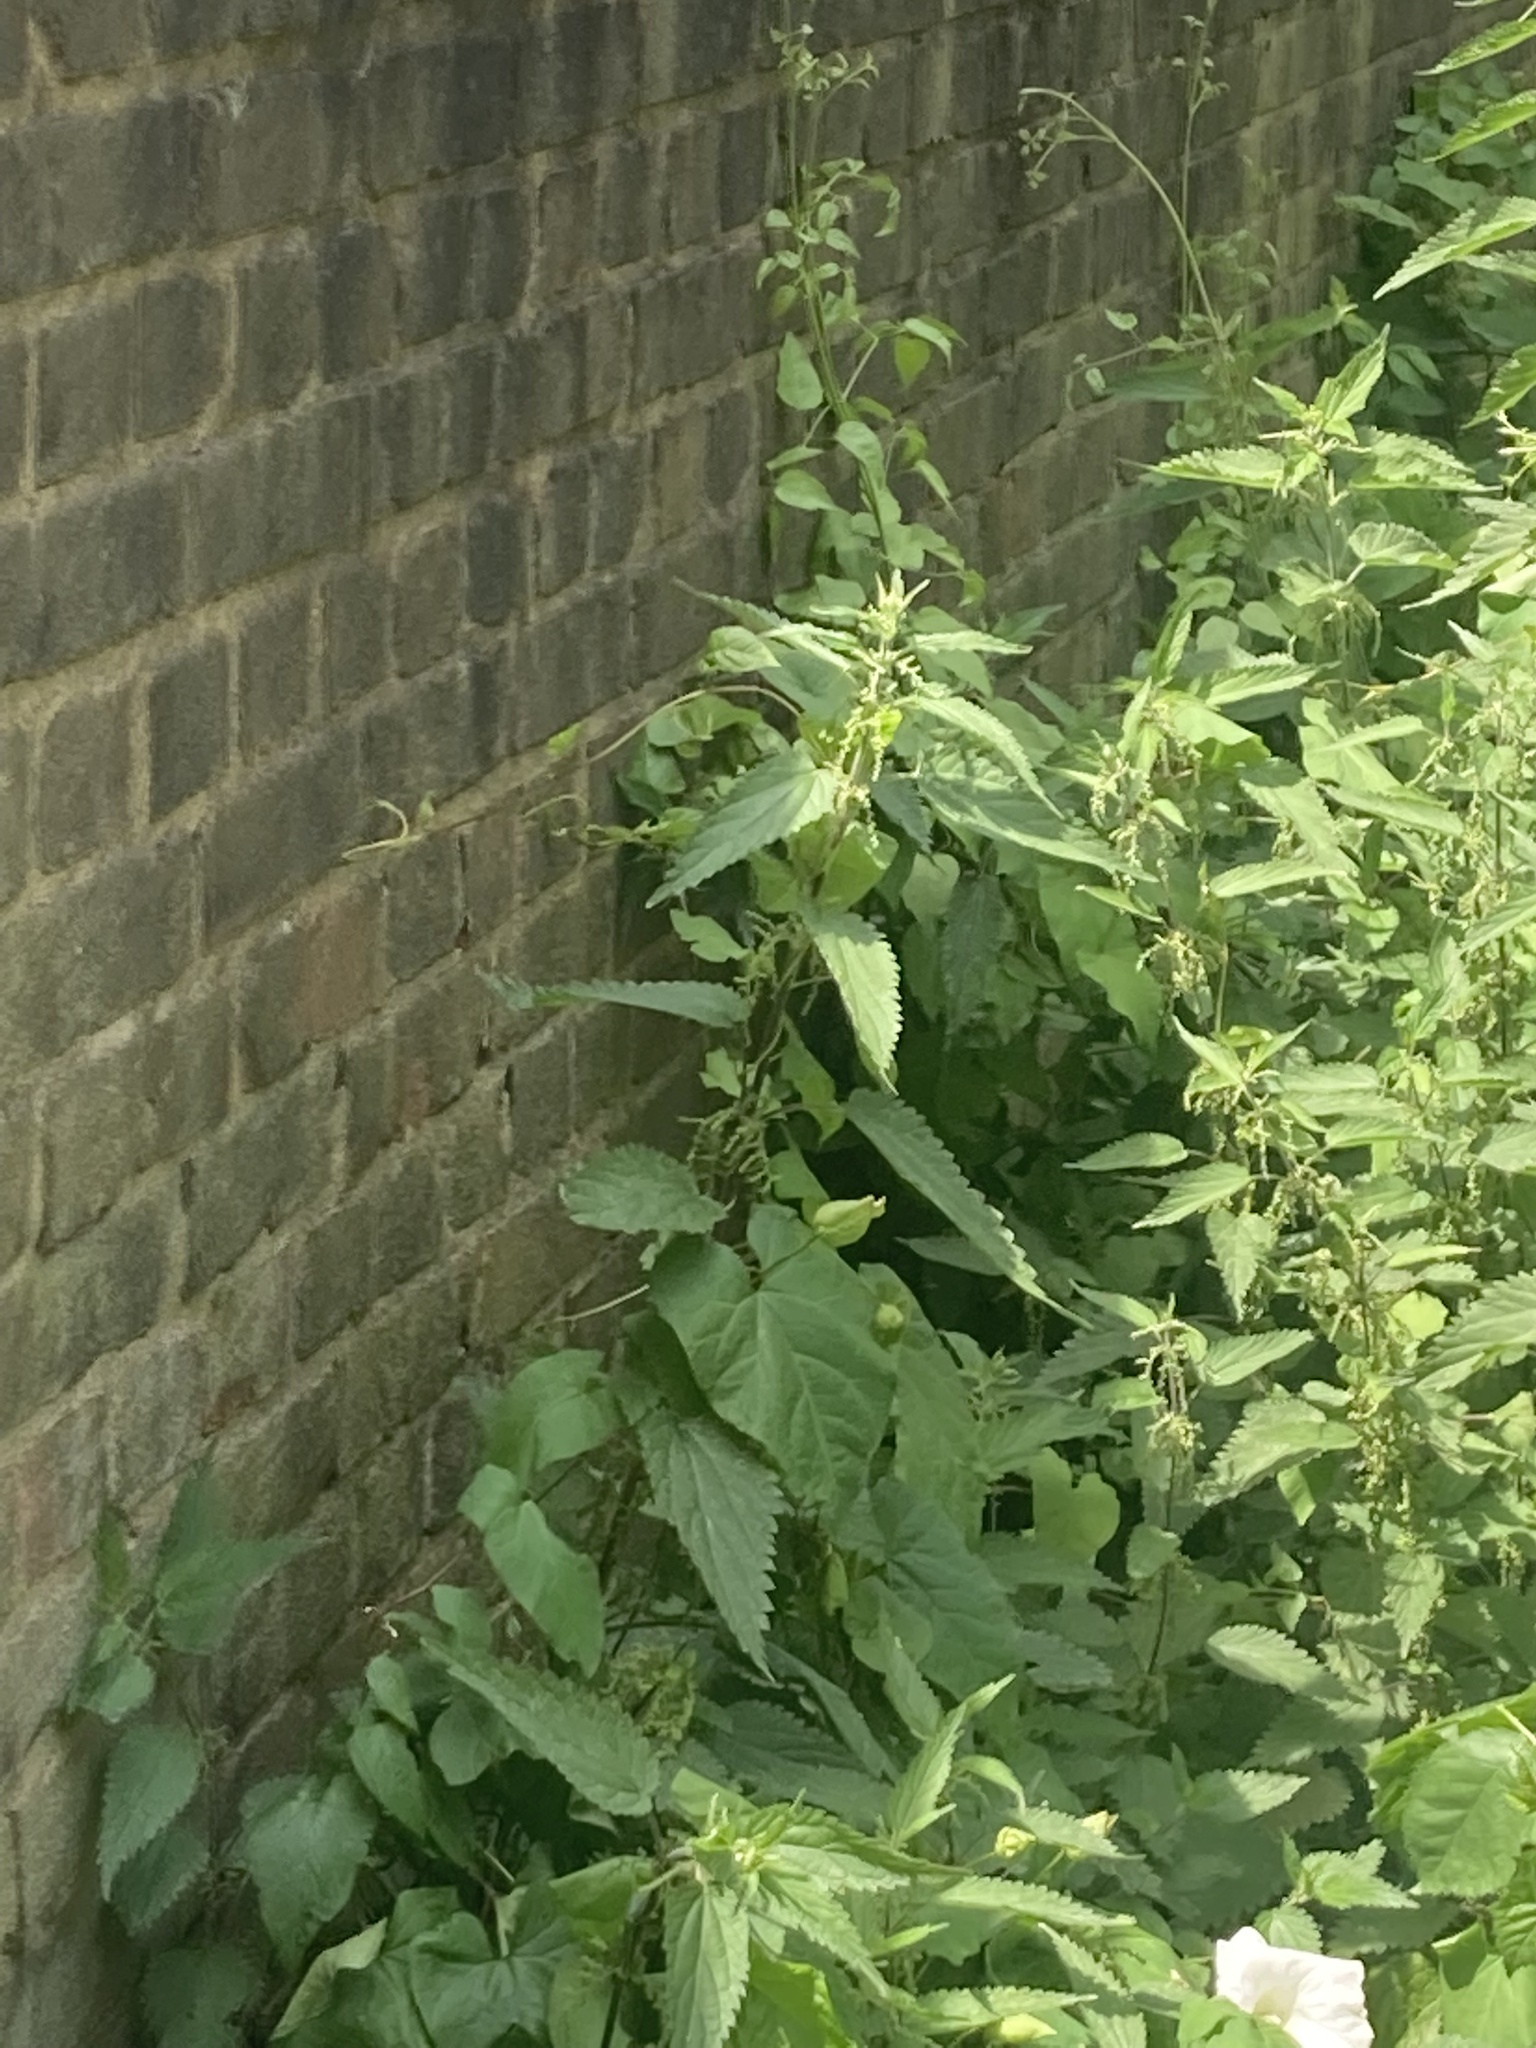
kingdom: Plantae
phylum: Tracheophyta
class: Magnoliopsida
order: Rosales
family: Urticaceae
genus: Urtica
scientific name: Urtica dioica
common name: Common nettle
